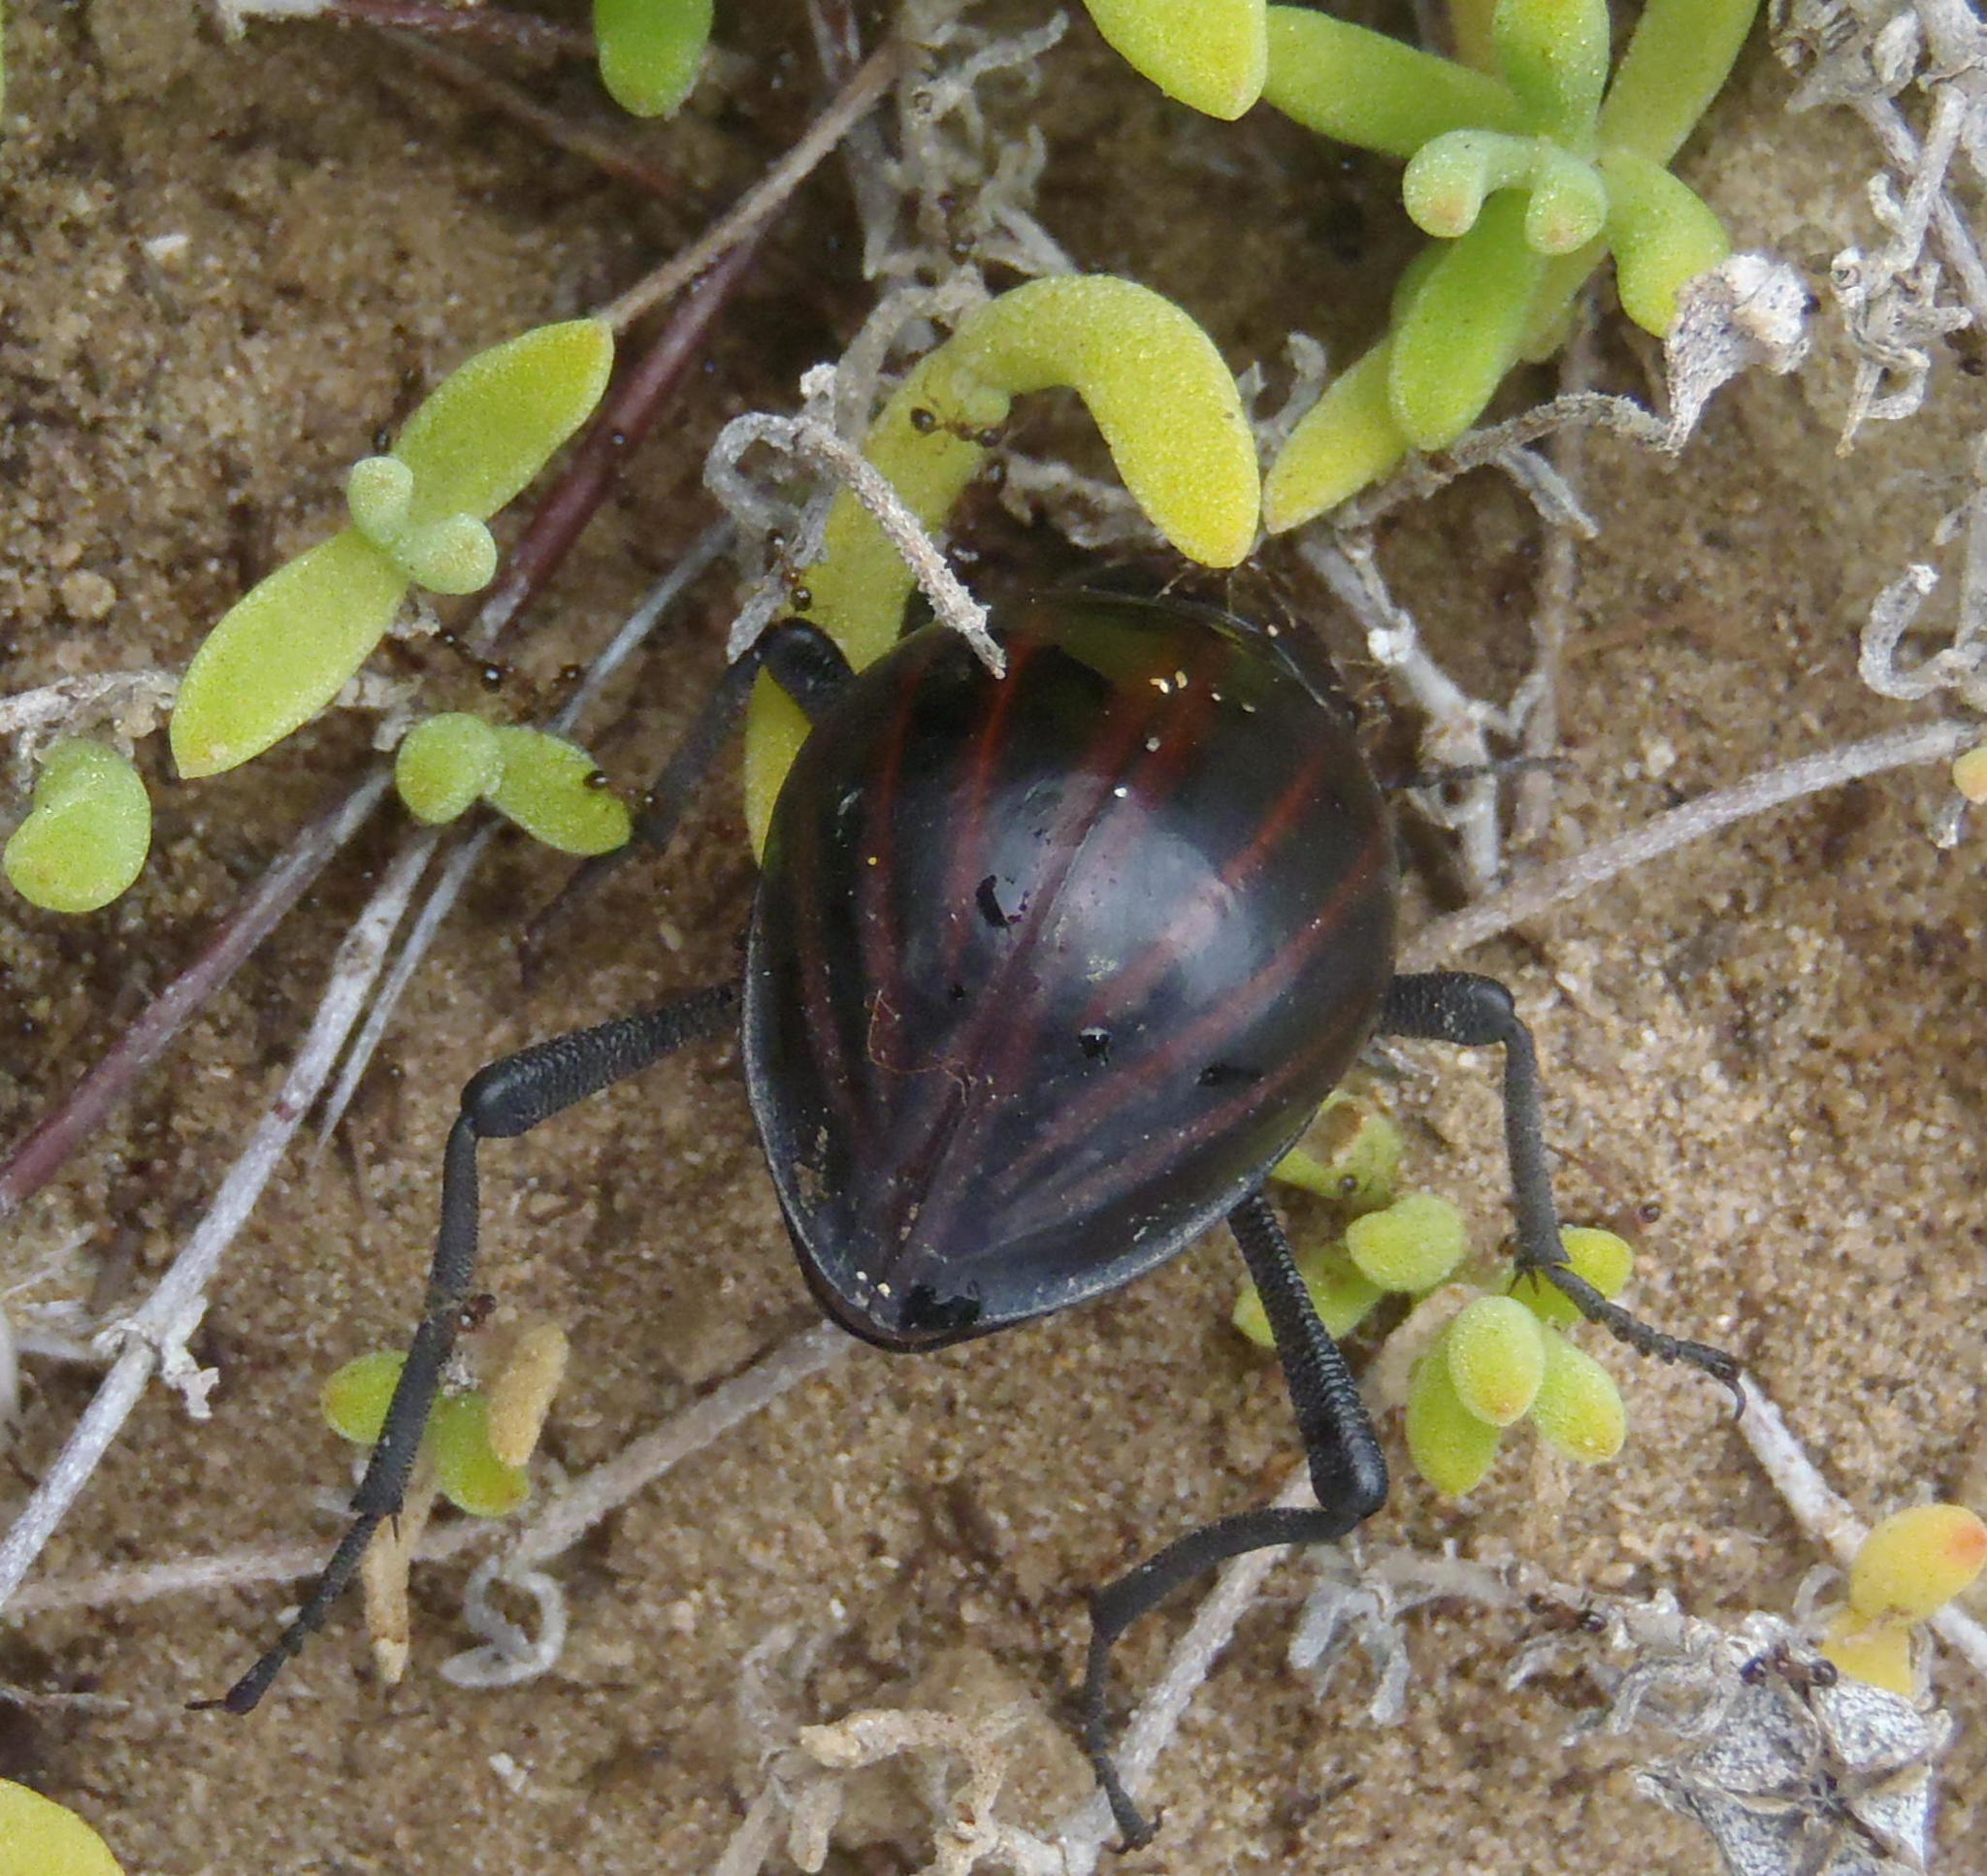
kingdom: Animalia
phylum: Arthropoda
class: Insecta
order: Coleoptera
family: Tenebrionidae
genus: Mariazofia
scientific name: Mariazofia
